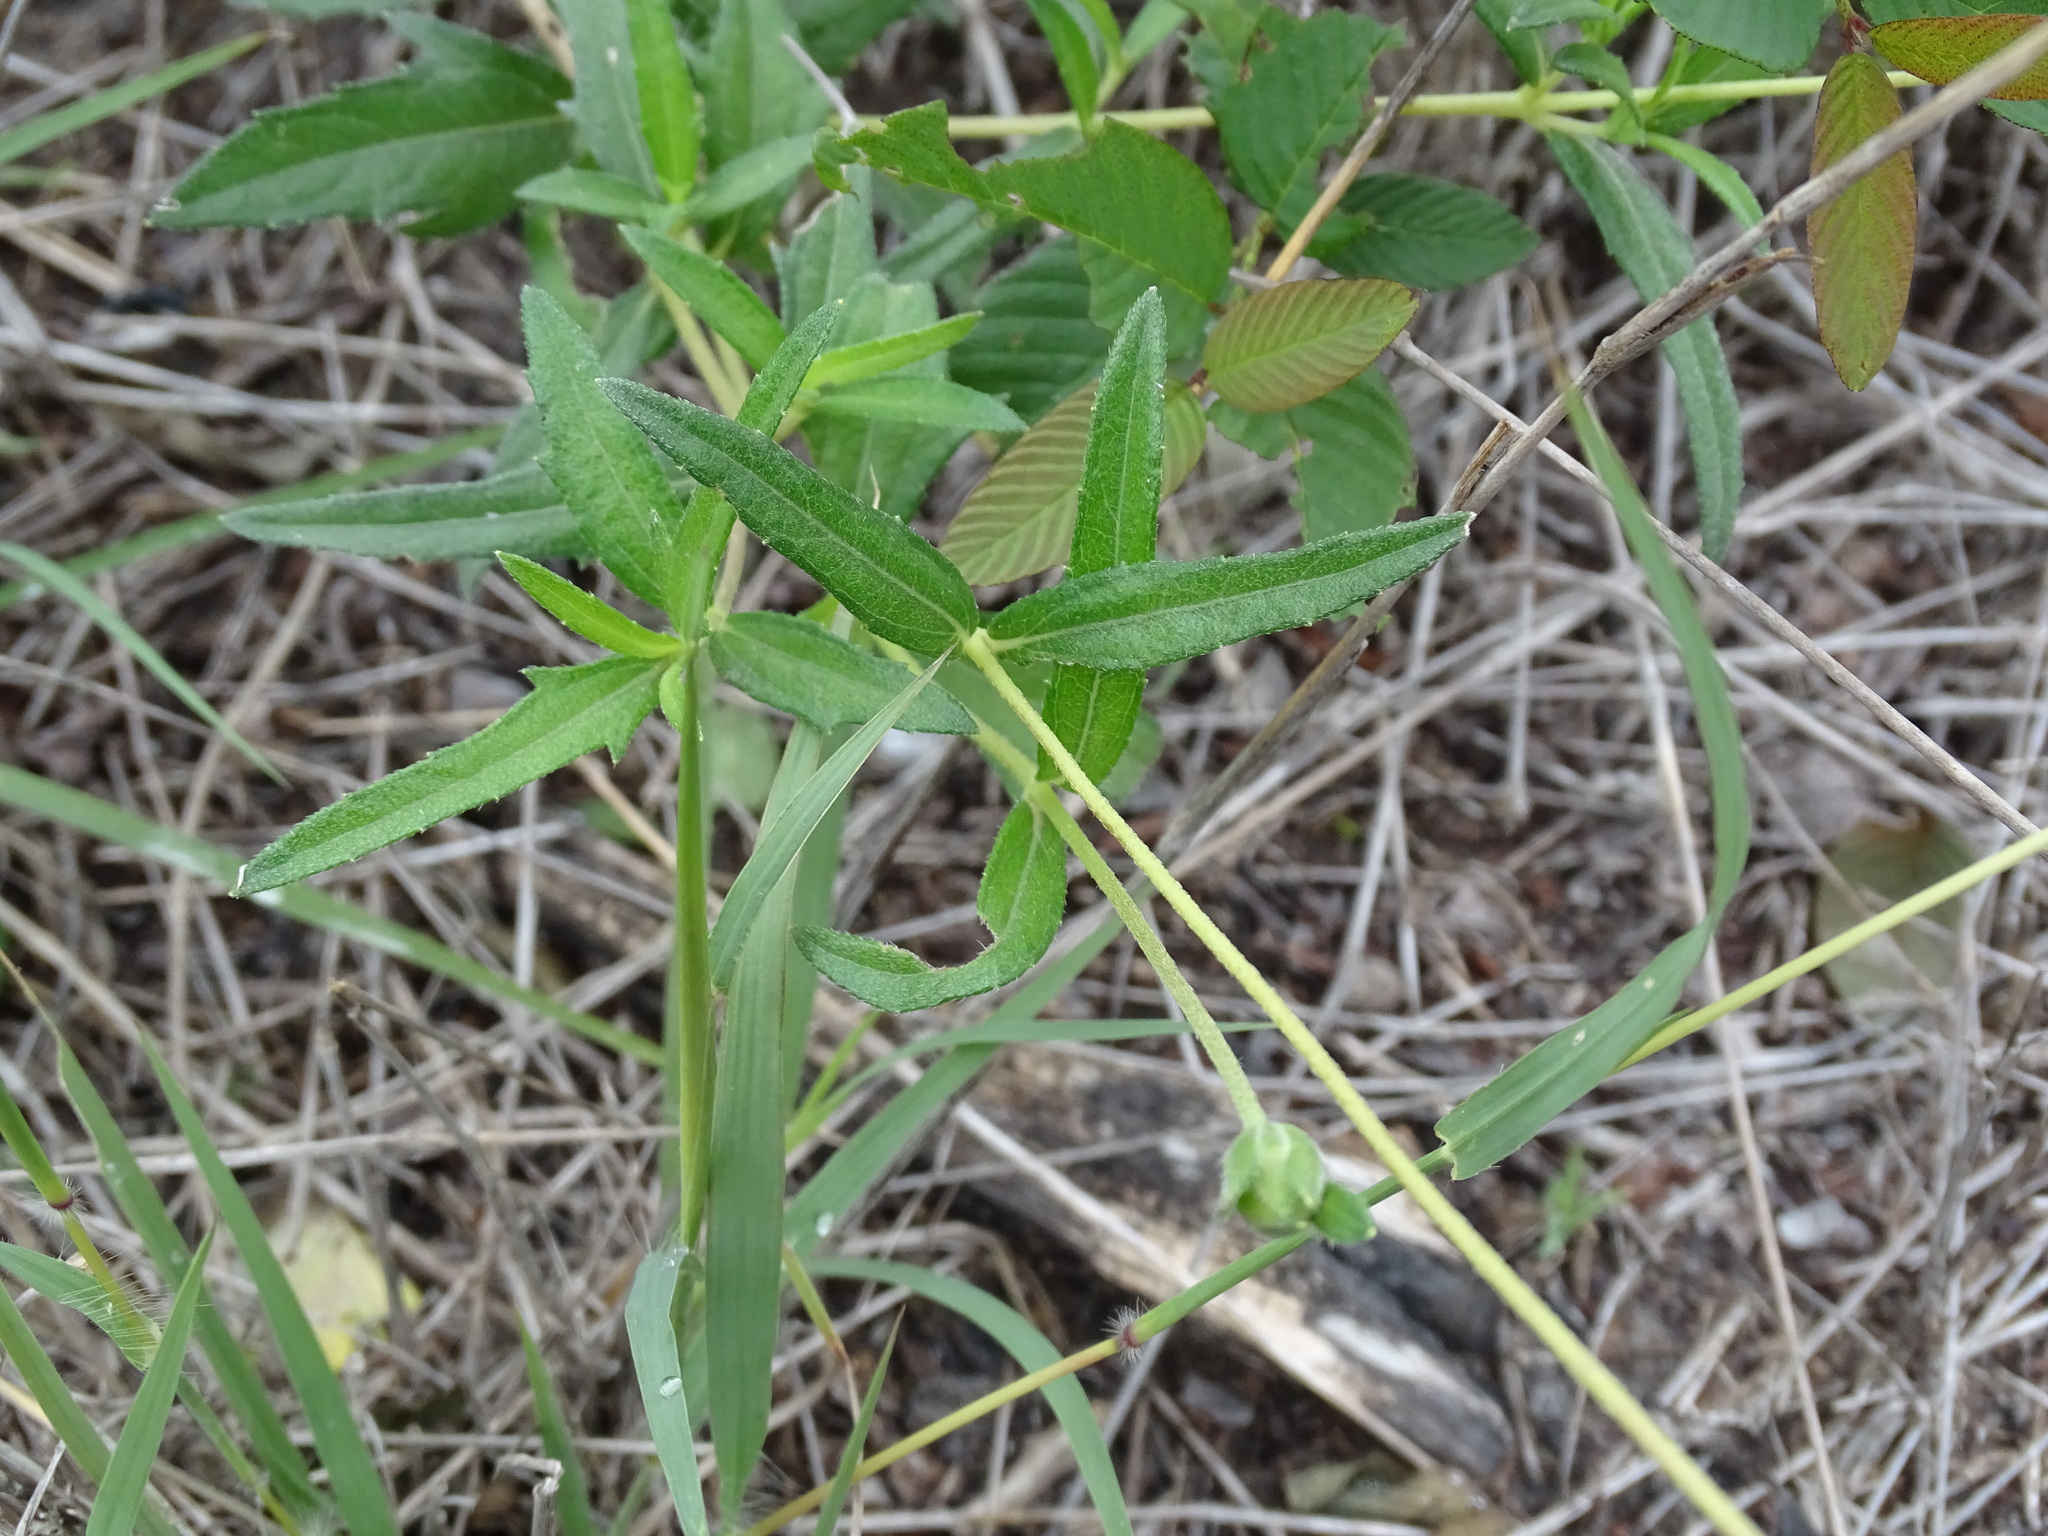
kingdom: Plantae
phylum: Tracheophyta
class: Magnoliopsida
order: Asterales
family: Asteraceae
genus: Wedelia
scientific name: Wedelia acapulcensis
